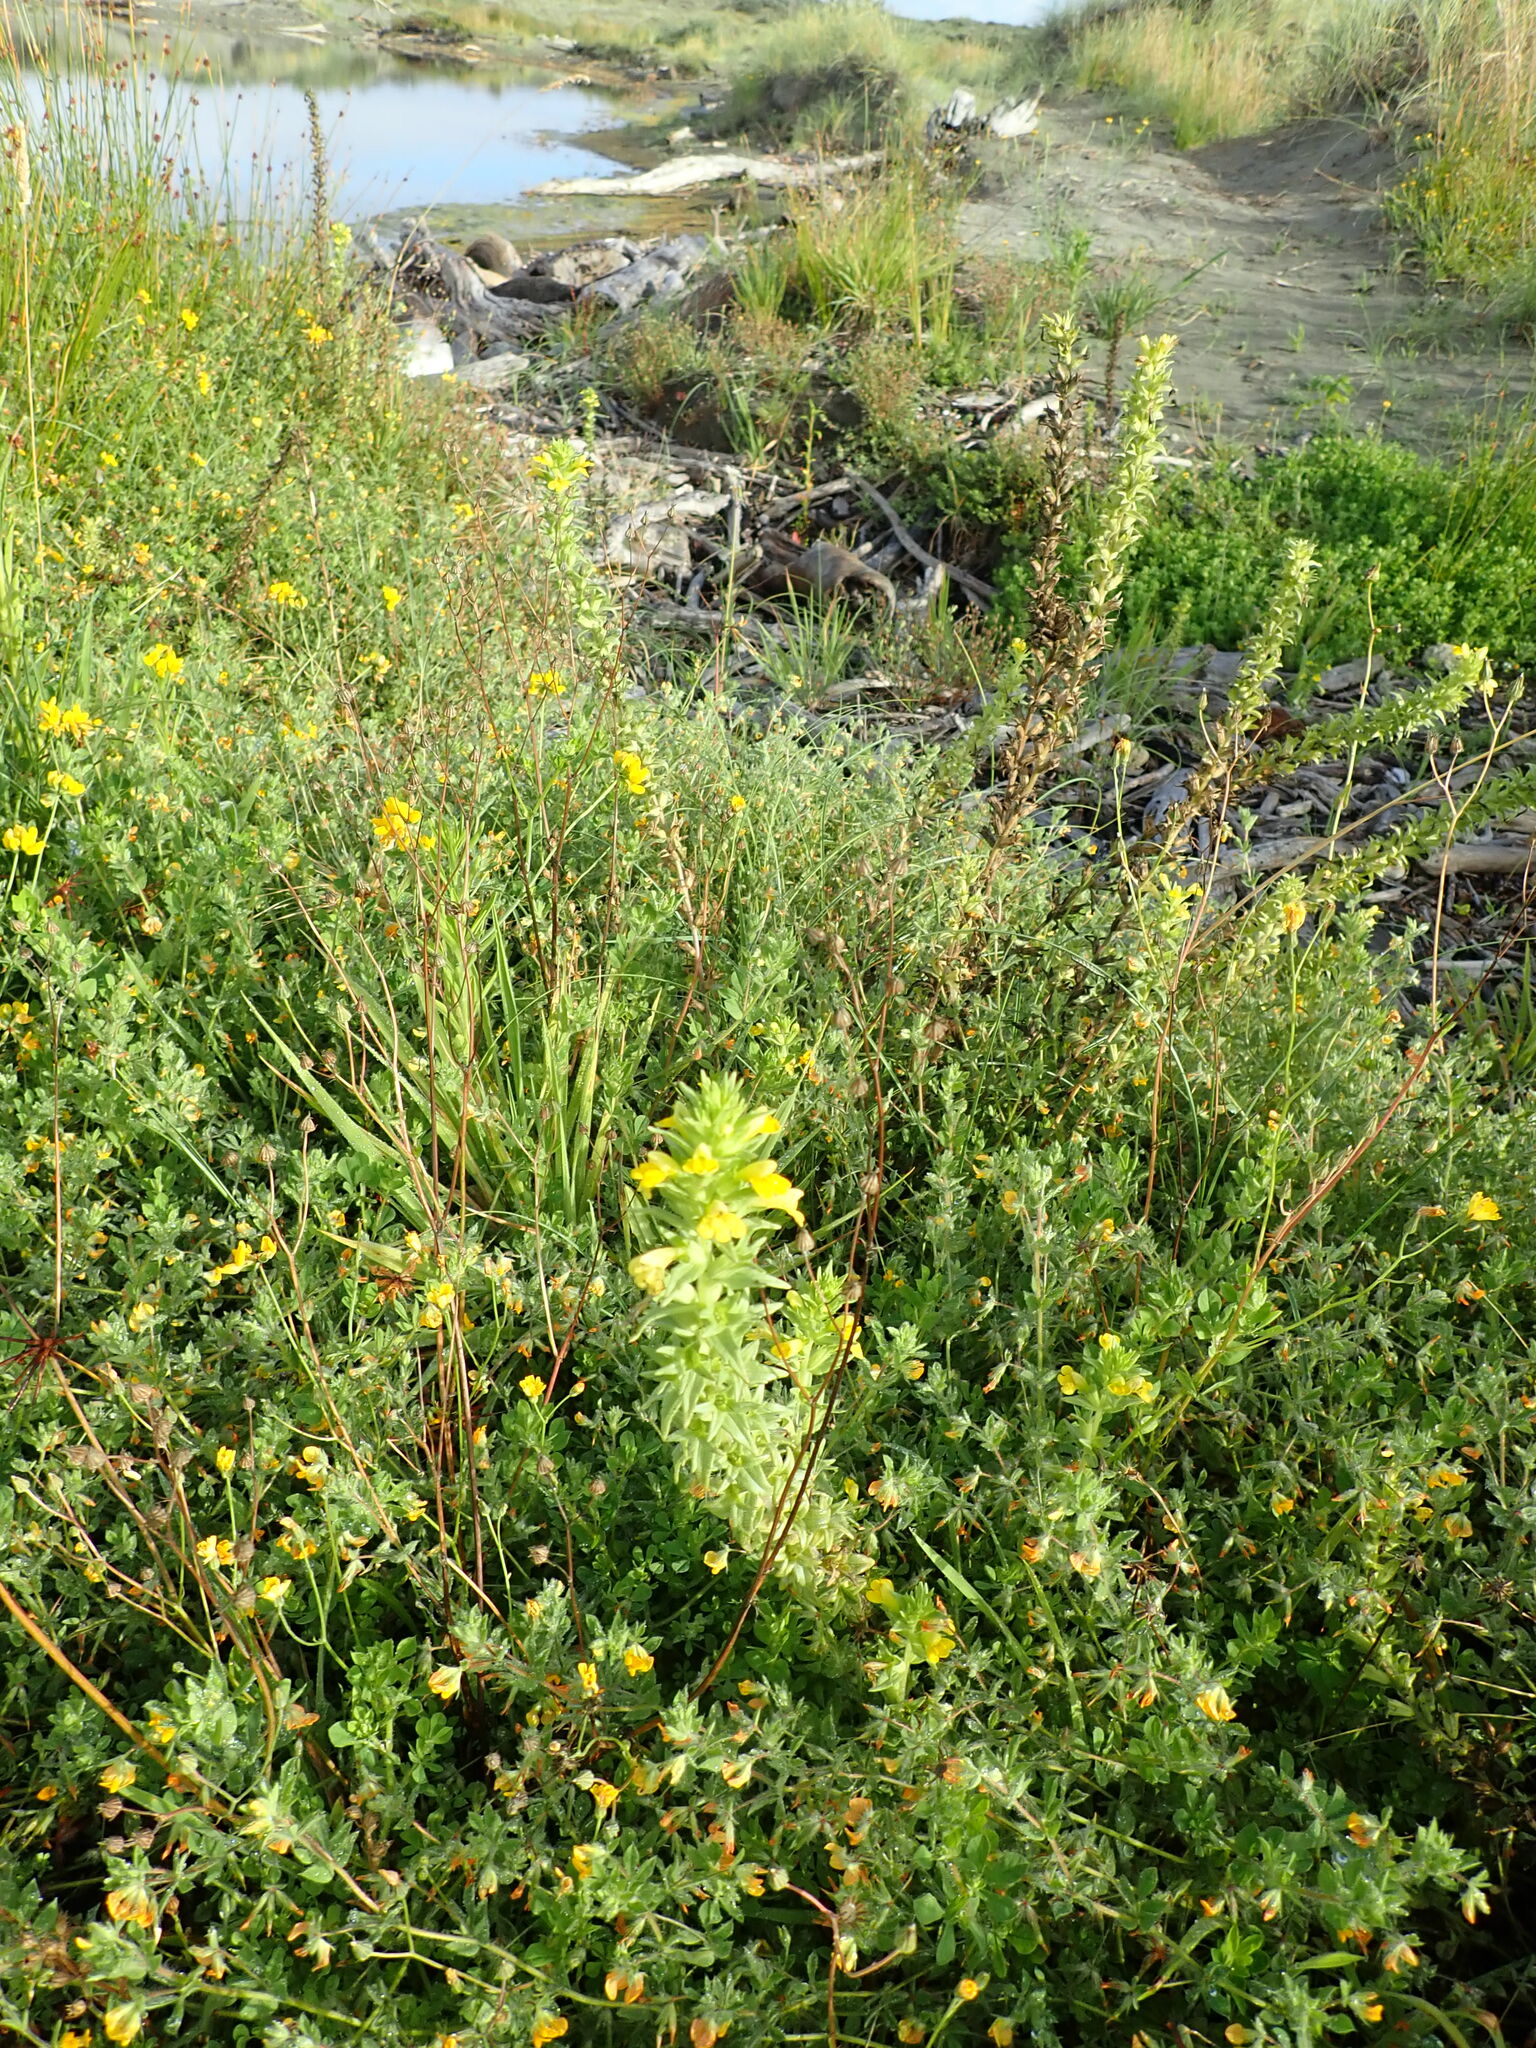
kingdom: Plantae
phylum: Tracheophyta
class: Magnoliopsida
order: Lamiales
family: Orobanchaceae
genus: Bellardia
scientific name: Bellardia viscosa
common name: Sticky parentucellia
